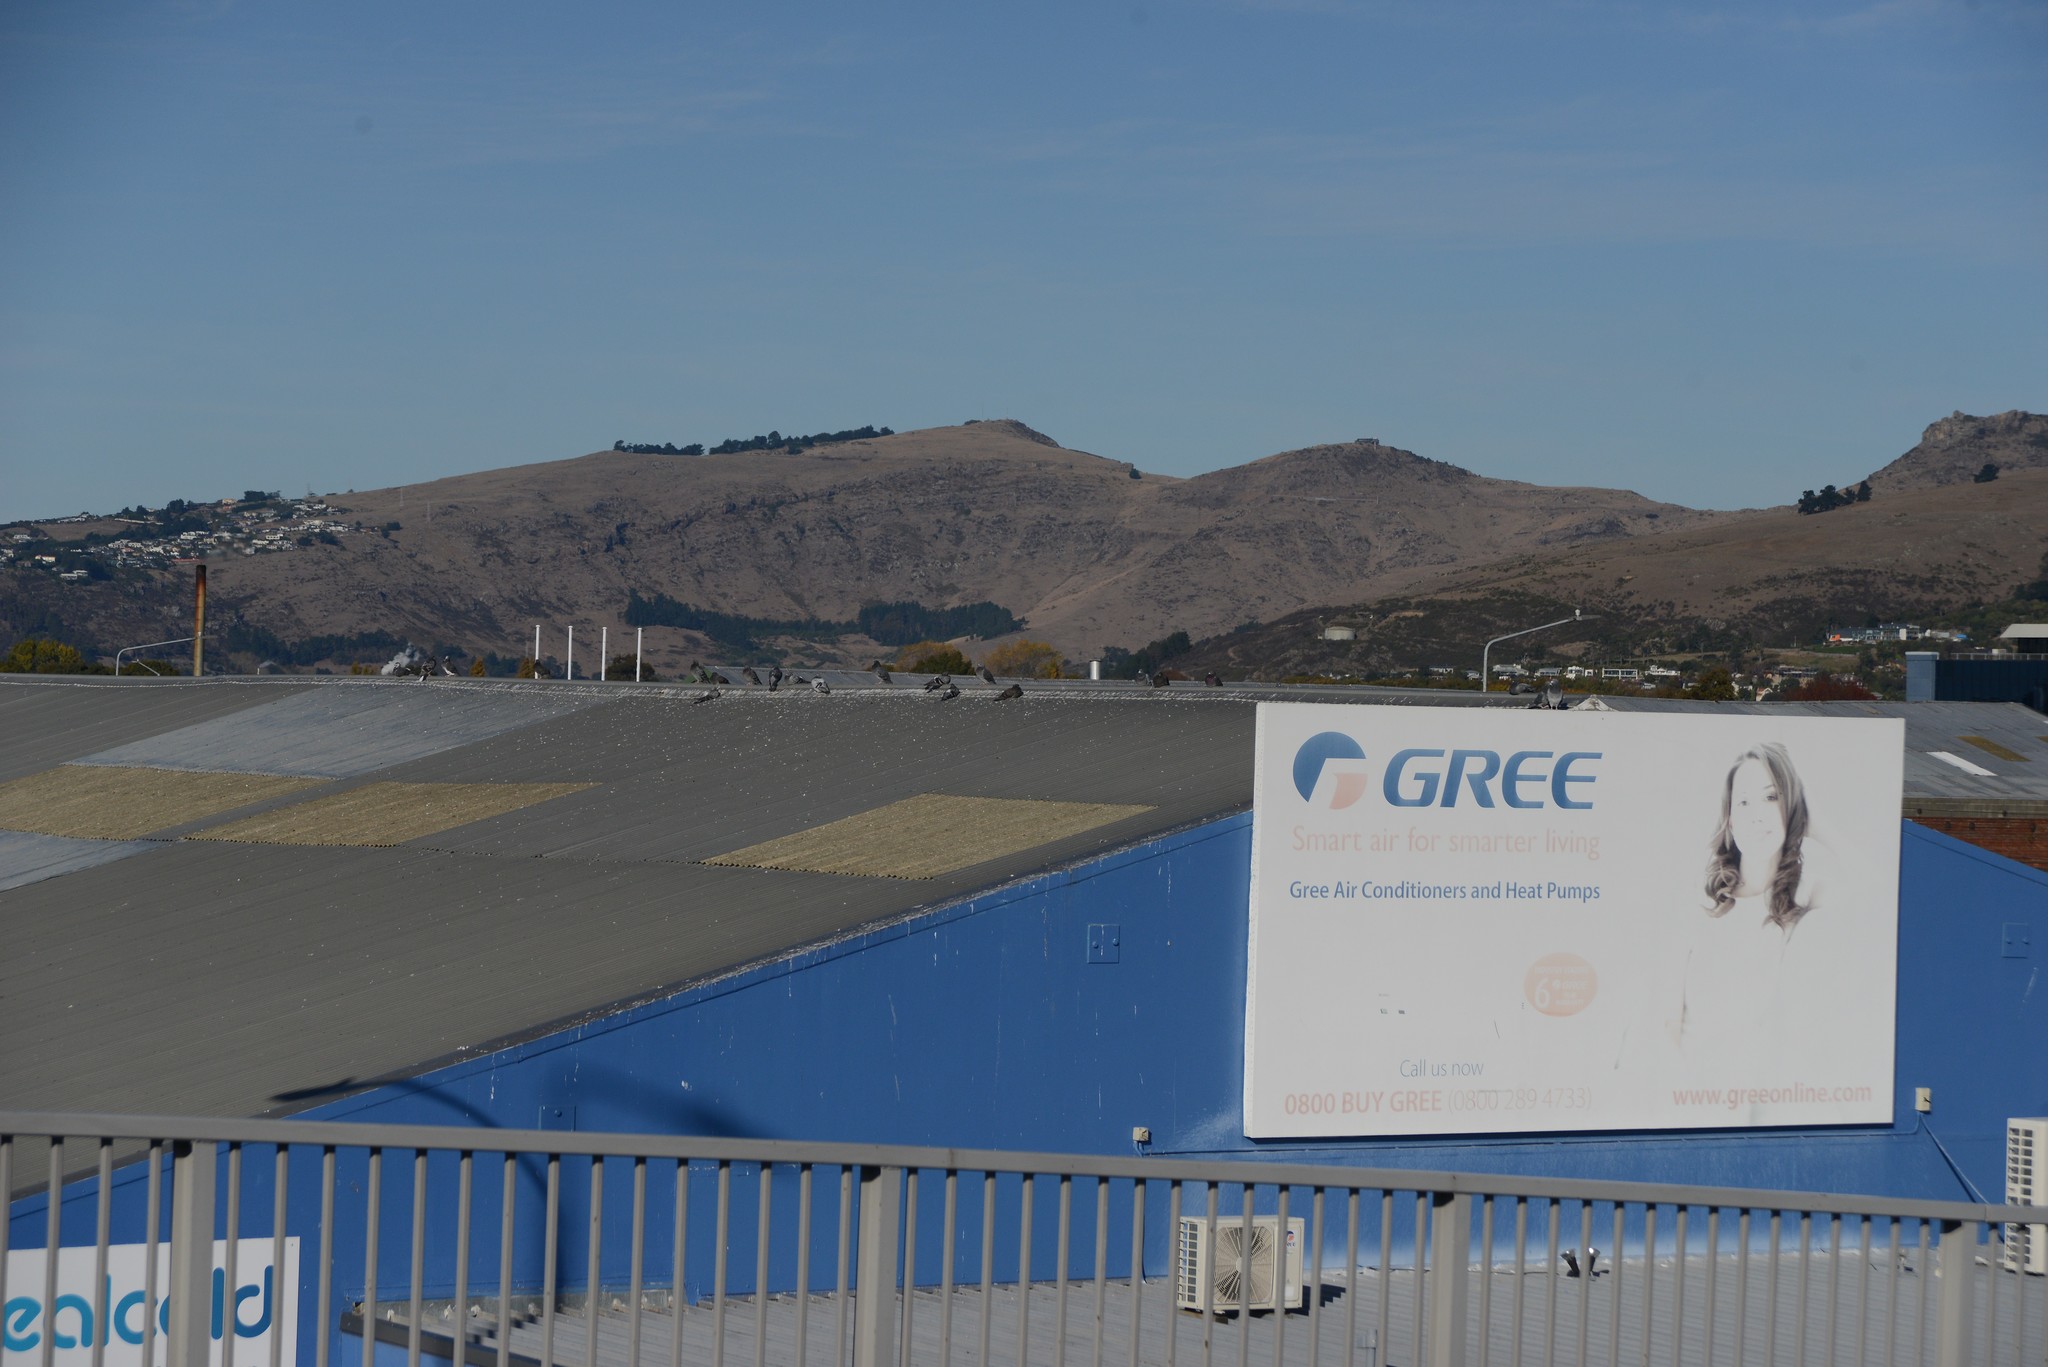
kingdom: Animalia
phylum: Chordata
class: Aves
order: Columbiformes
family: Columbidae
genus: Columba
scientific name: Columba livia
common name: Rock pigeon
